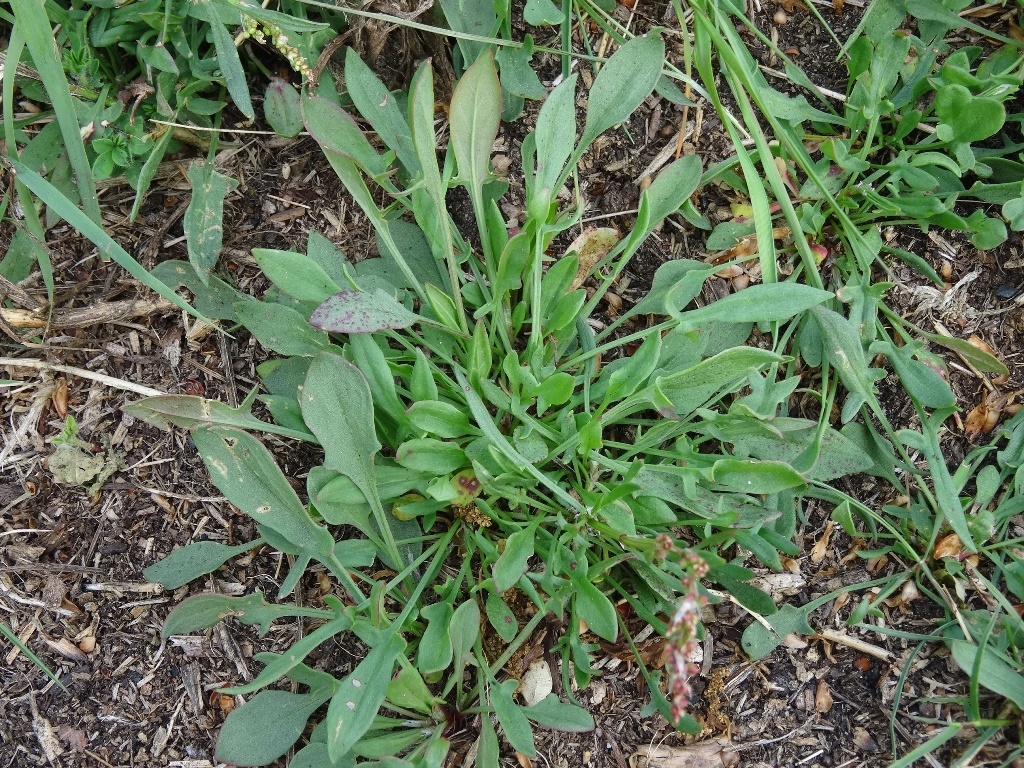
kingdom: Plantae
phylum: Tracheophyta
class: Magnoliopsida
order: Caryophyllales
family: Polygonaceae
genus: Rumex
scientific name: Rumex acetosella
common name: Common sheep sorrel
